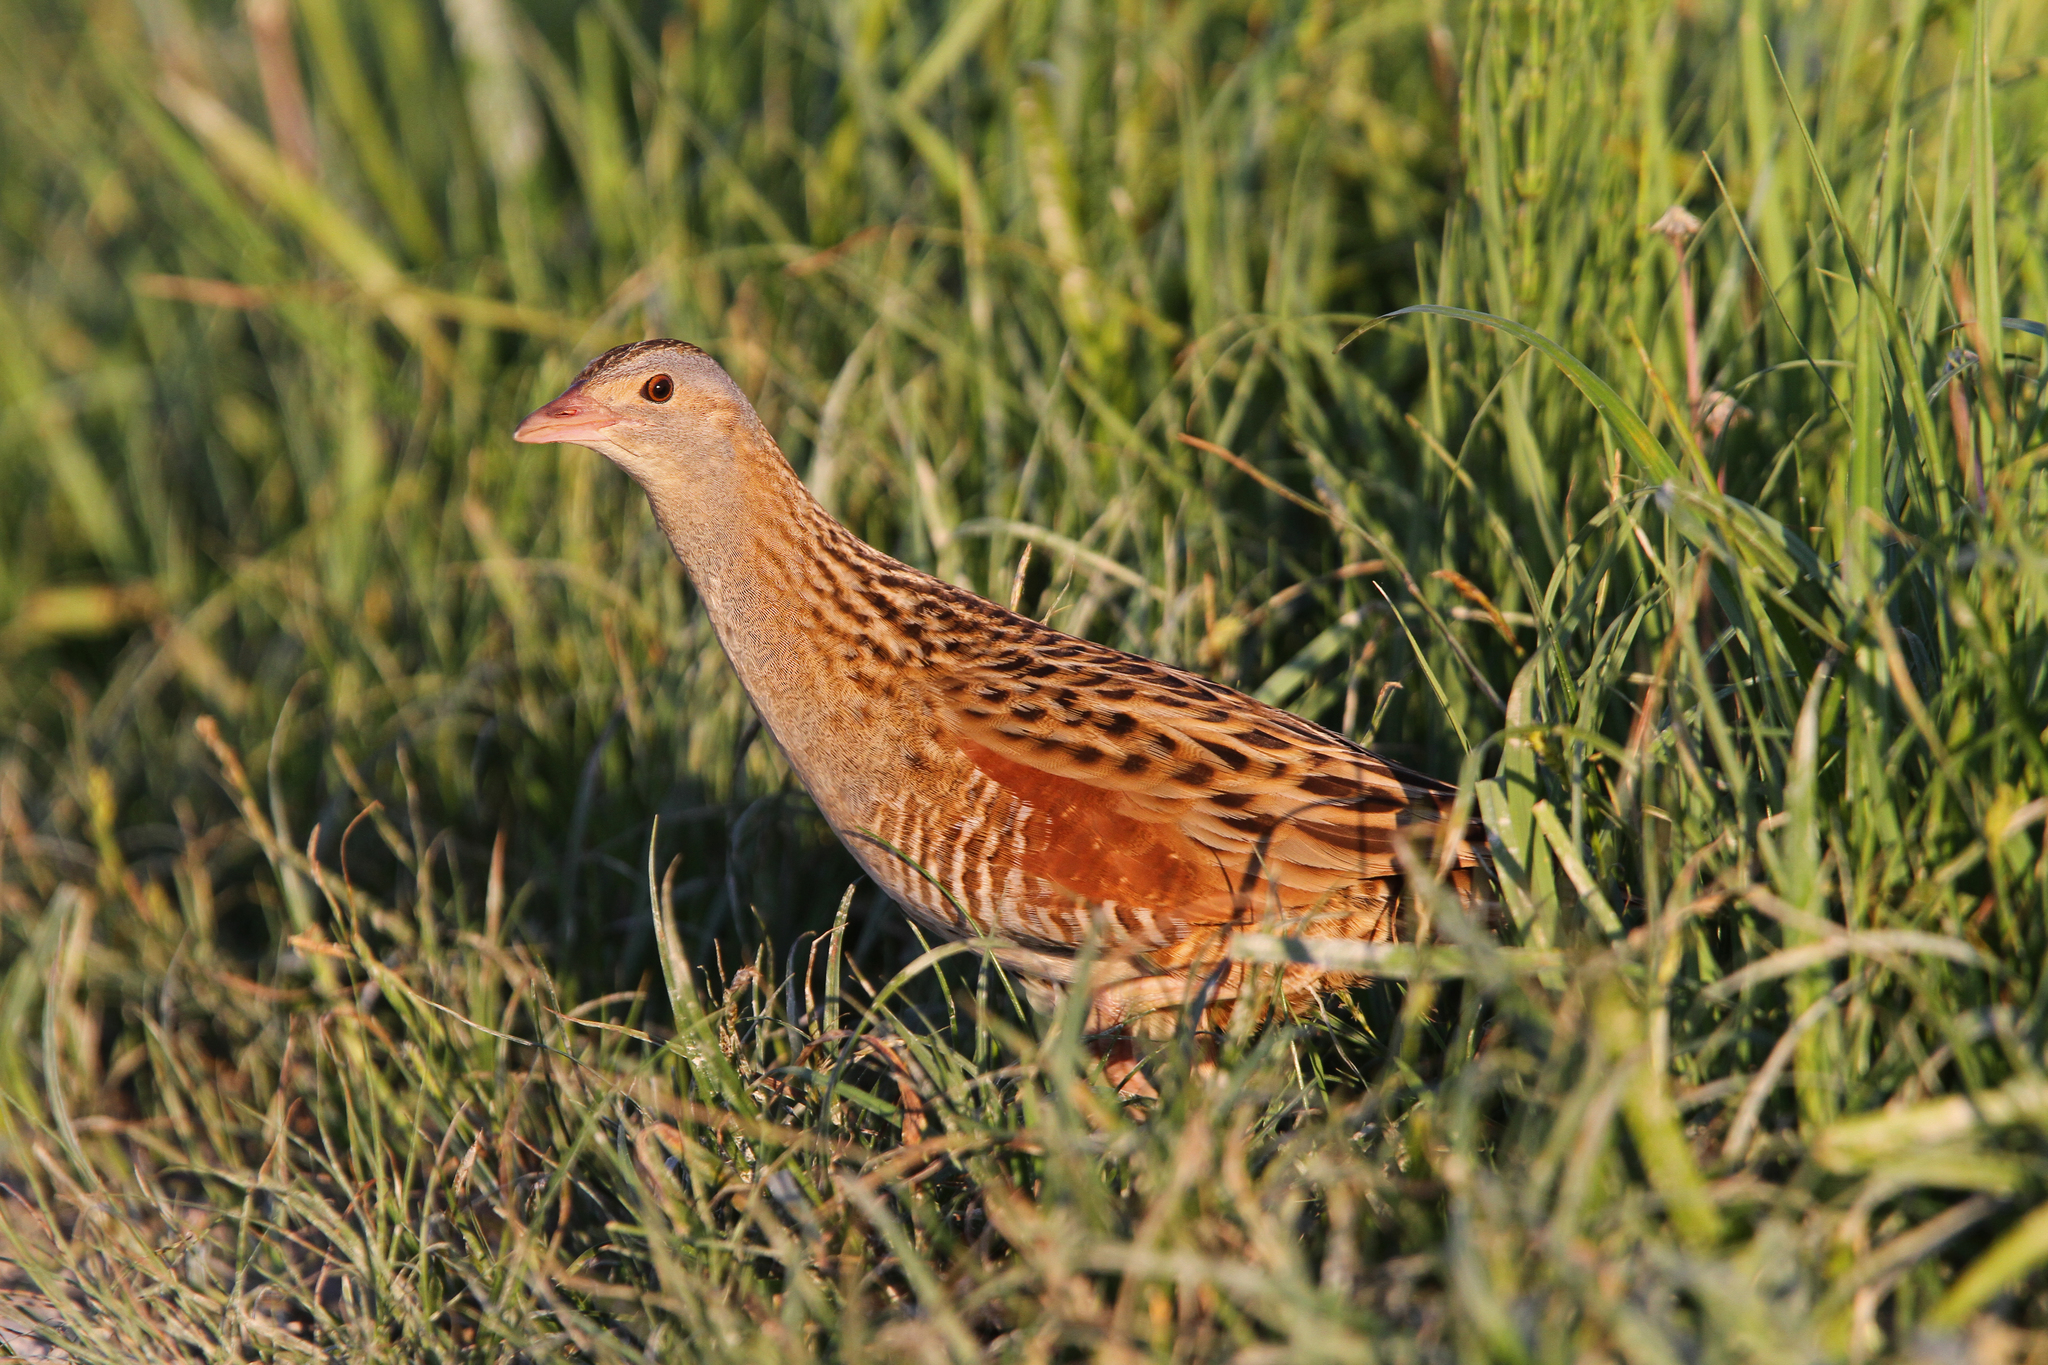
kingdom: Animalia
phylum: Chordata
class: Aves
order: Gruiformes
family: Rallidae
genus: Crex
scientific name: Crex crex
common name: Corn crake
